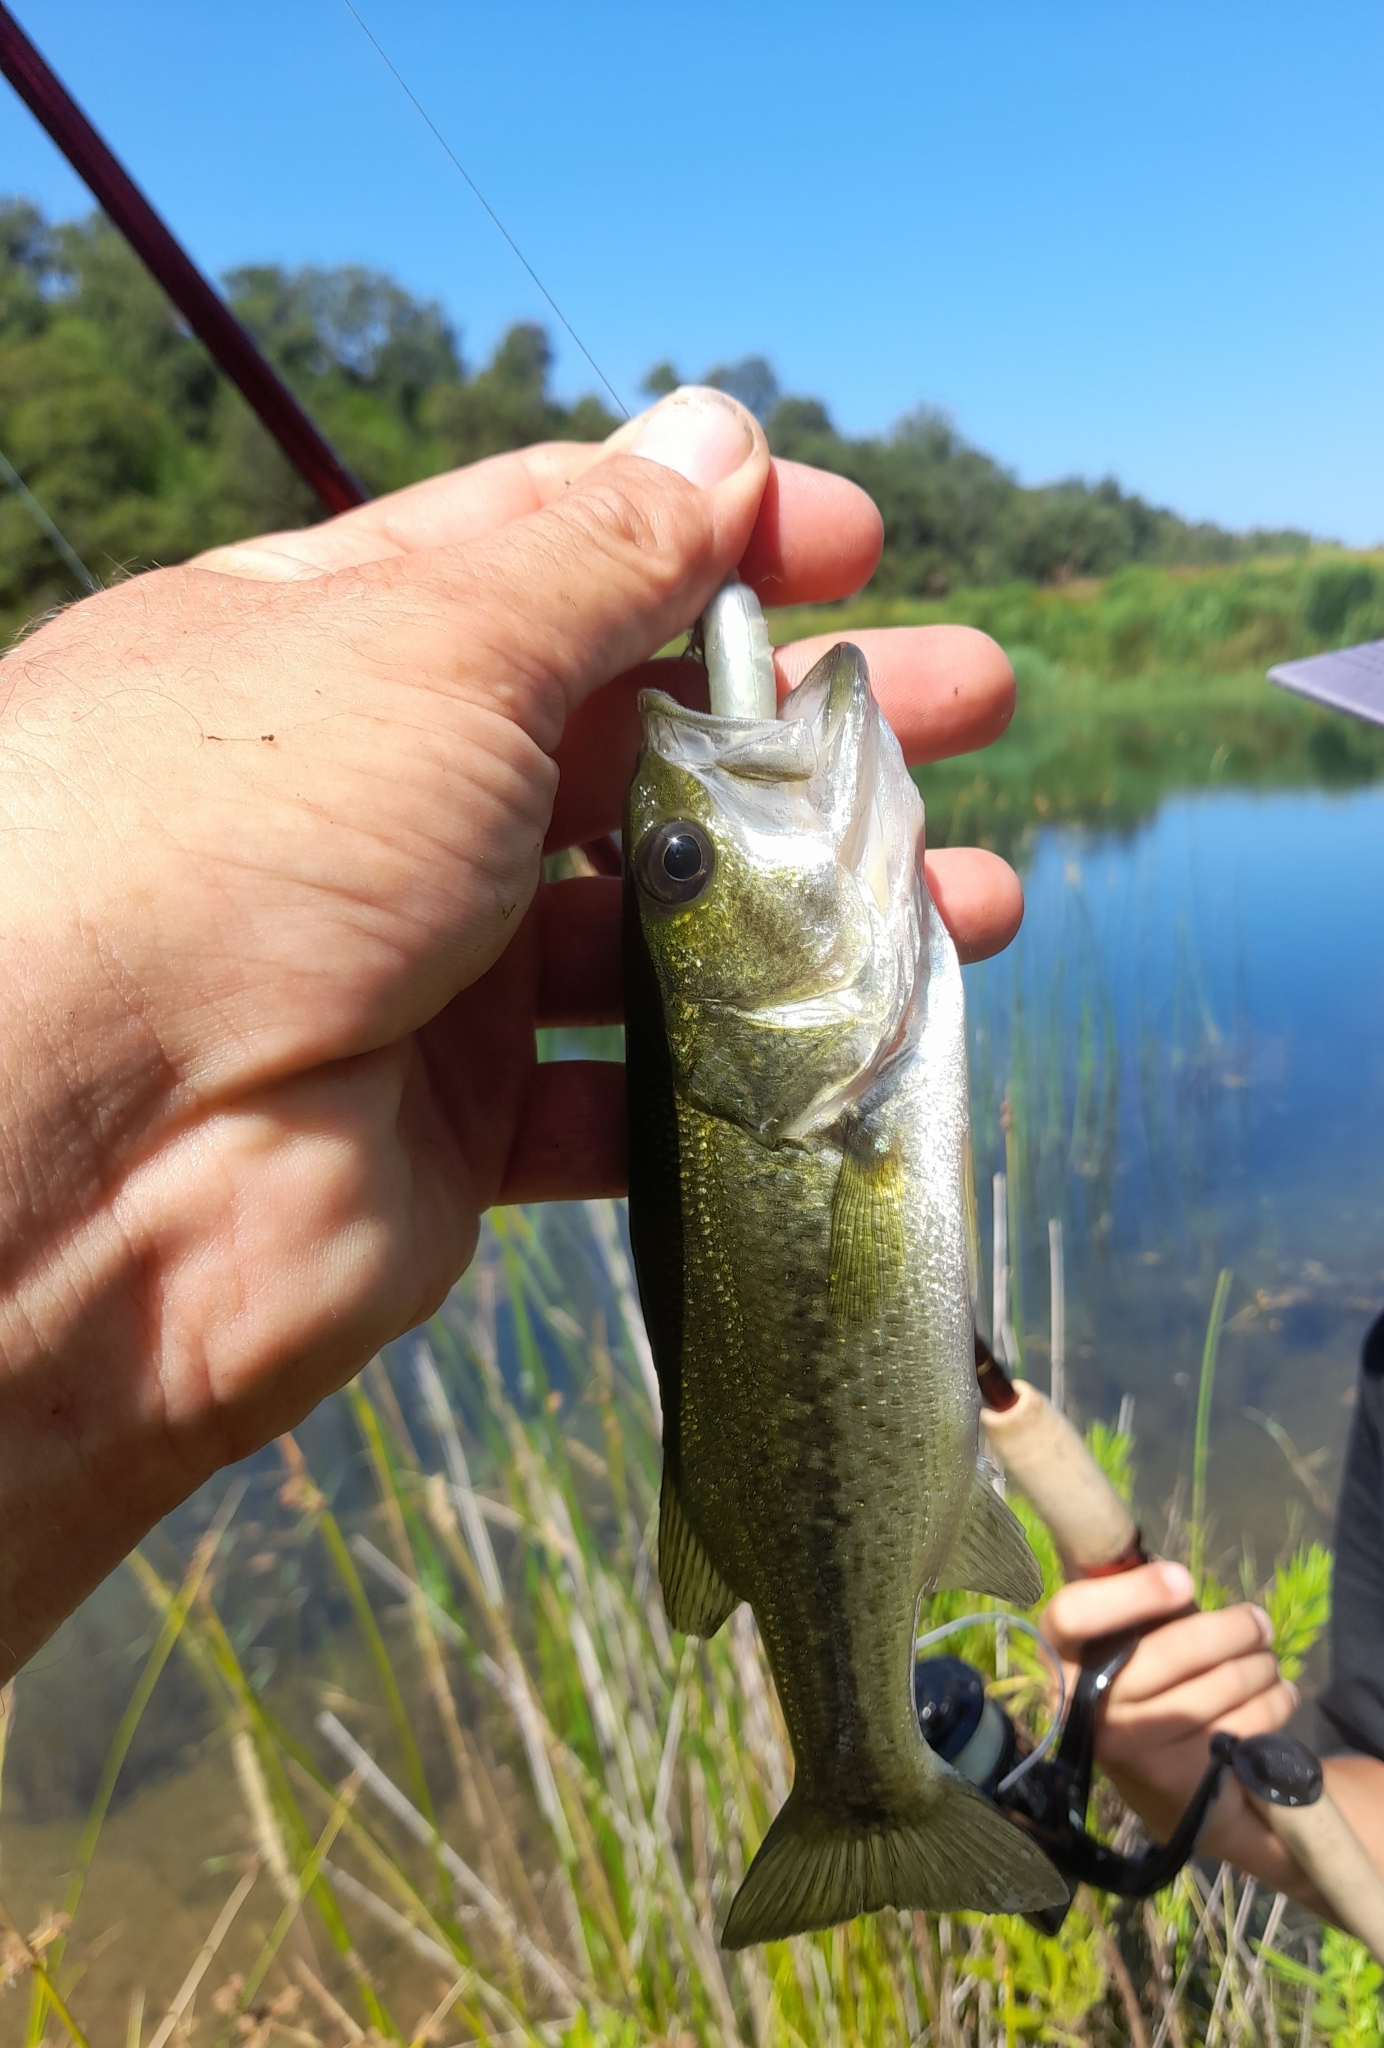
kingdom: Animalia
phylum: Chordata
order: Perciformes
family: Centrarchidae
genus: Micropterus
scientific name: Micropterus
